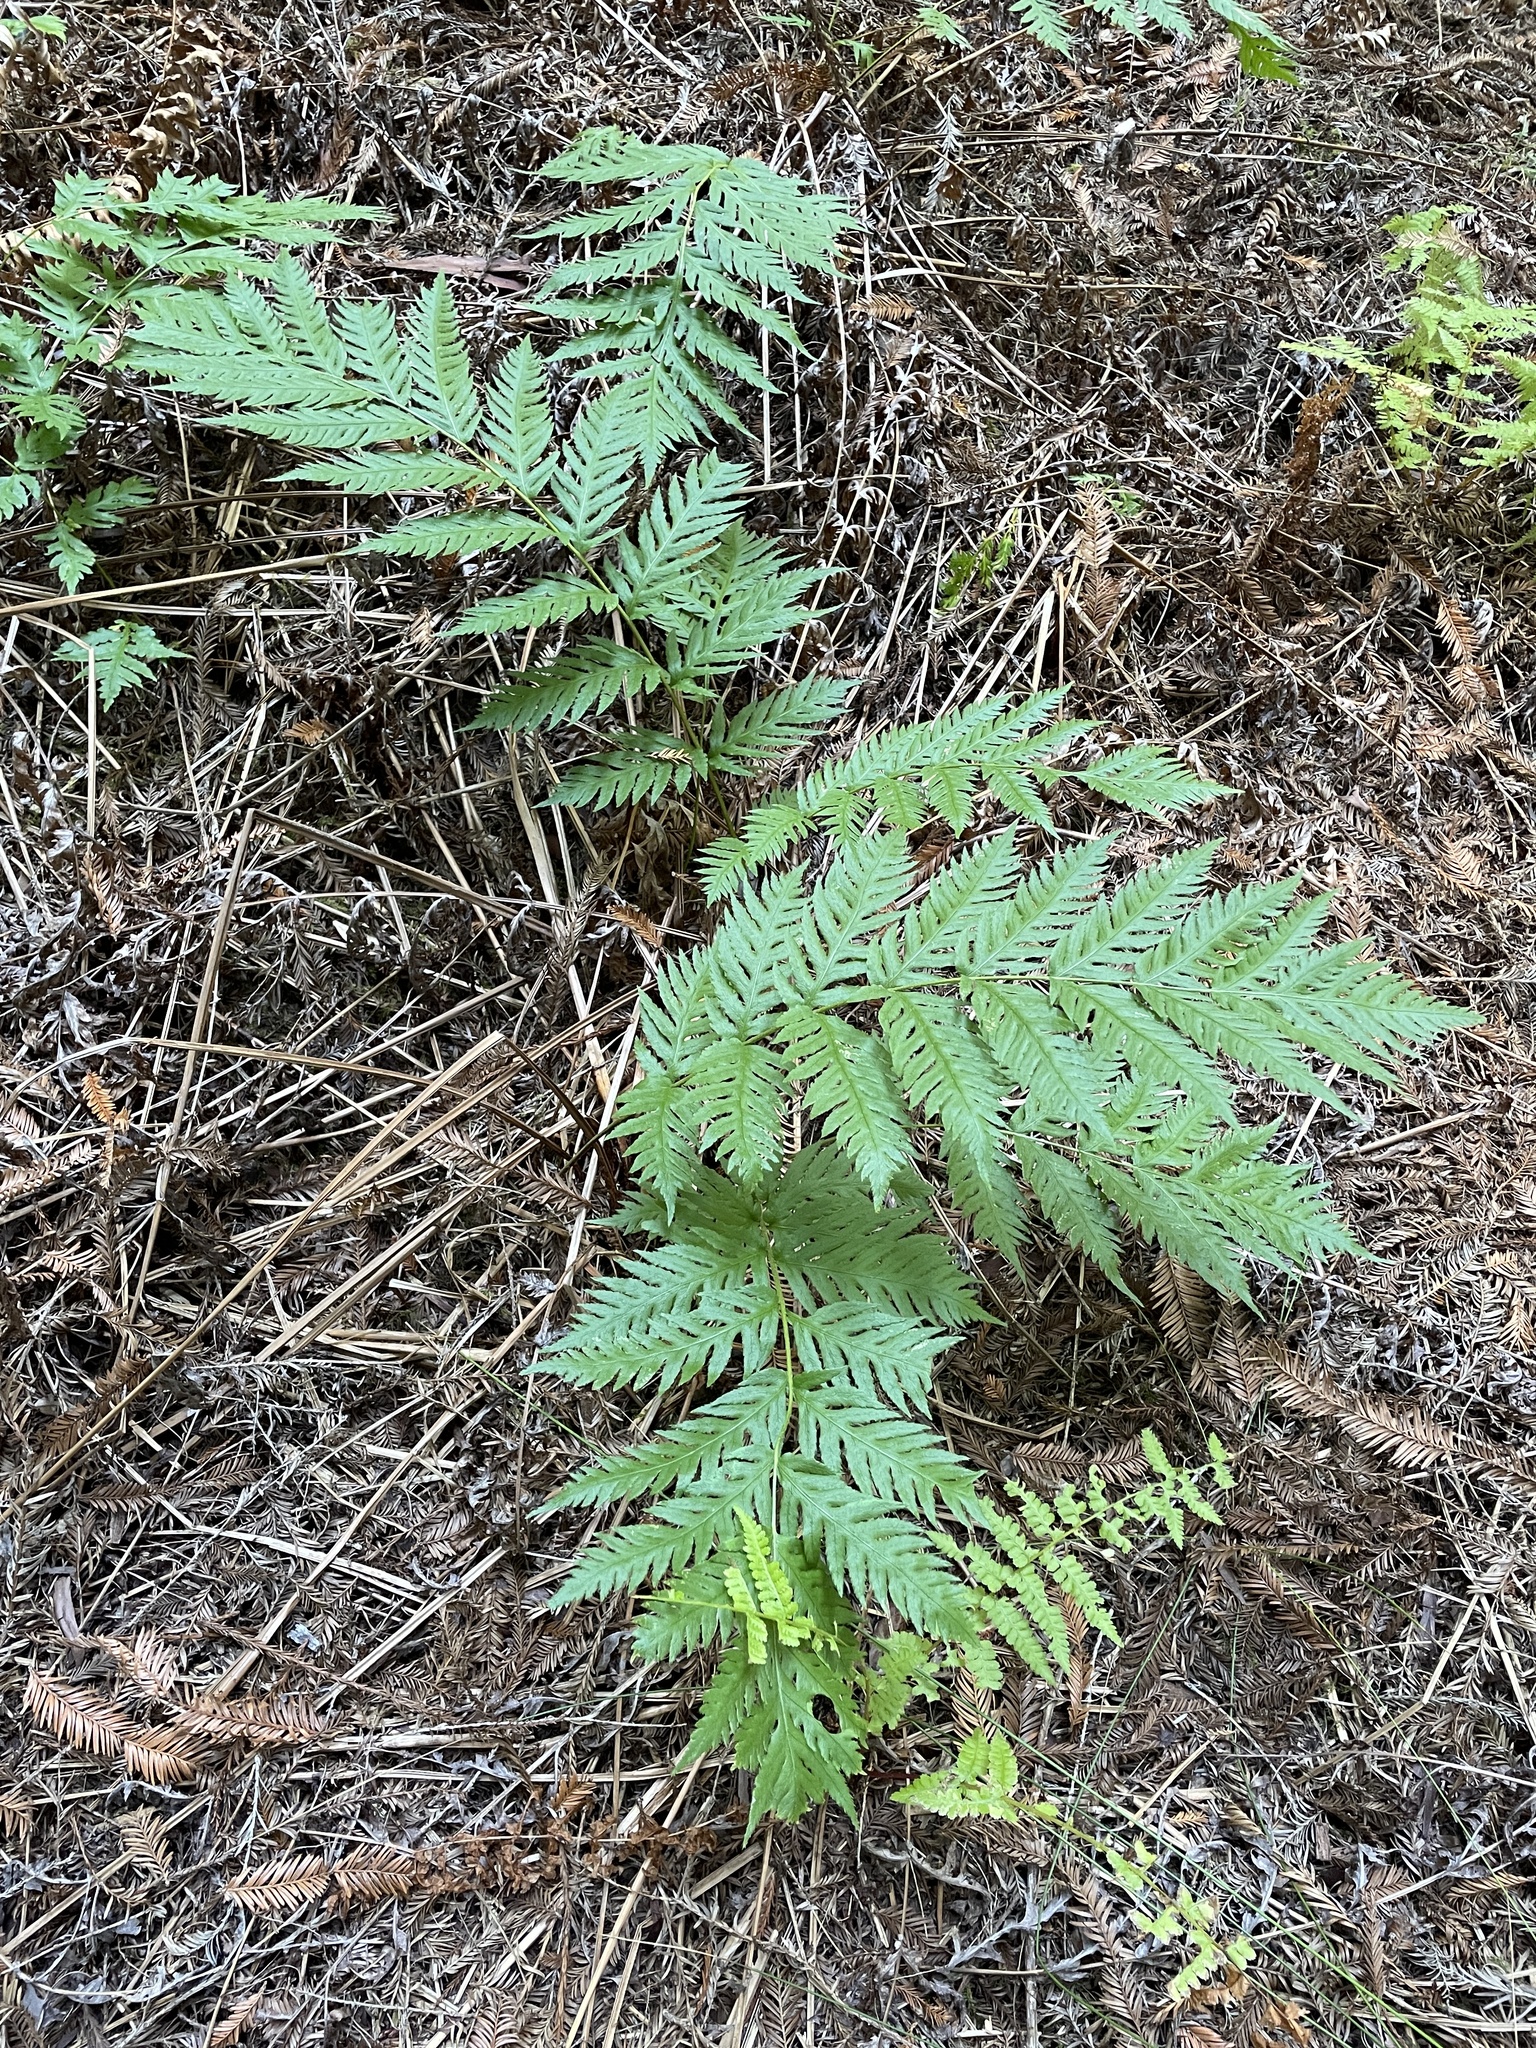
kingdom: Plantae
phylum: Tracheophyta
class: Polypodiopsida
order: Polypodiales
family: Blechnaceae
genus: Woodwardia
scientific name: Woodwardia fimbriata
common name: Giant chain fern
